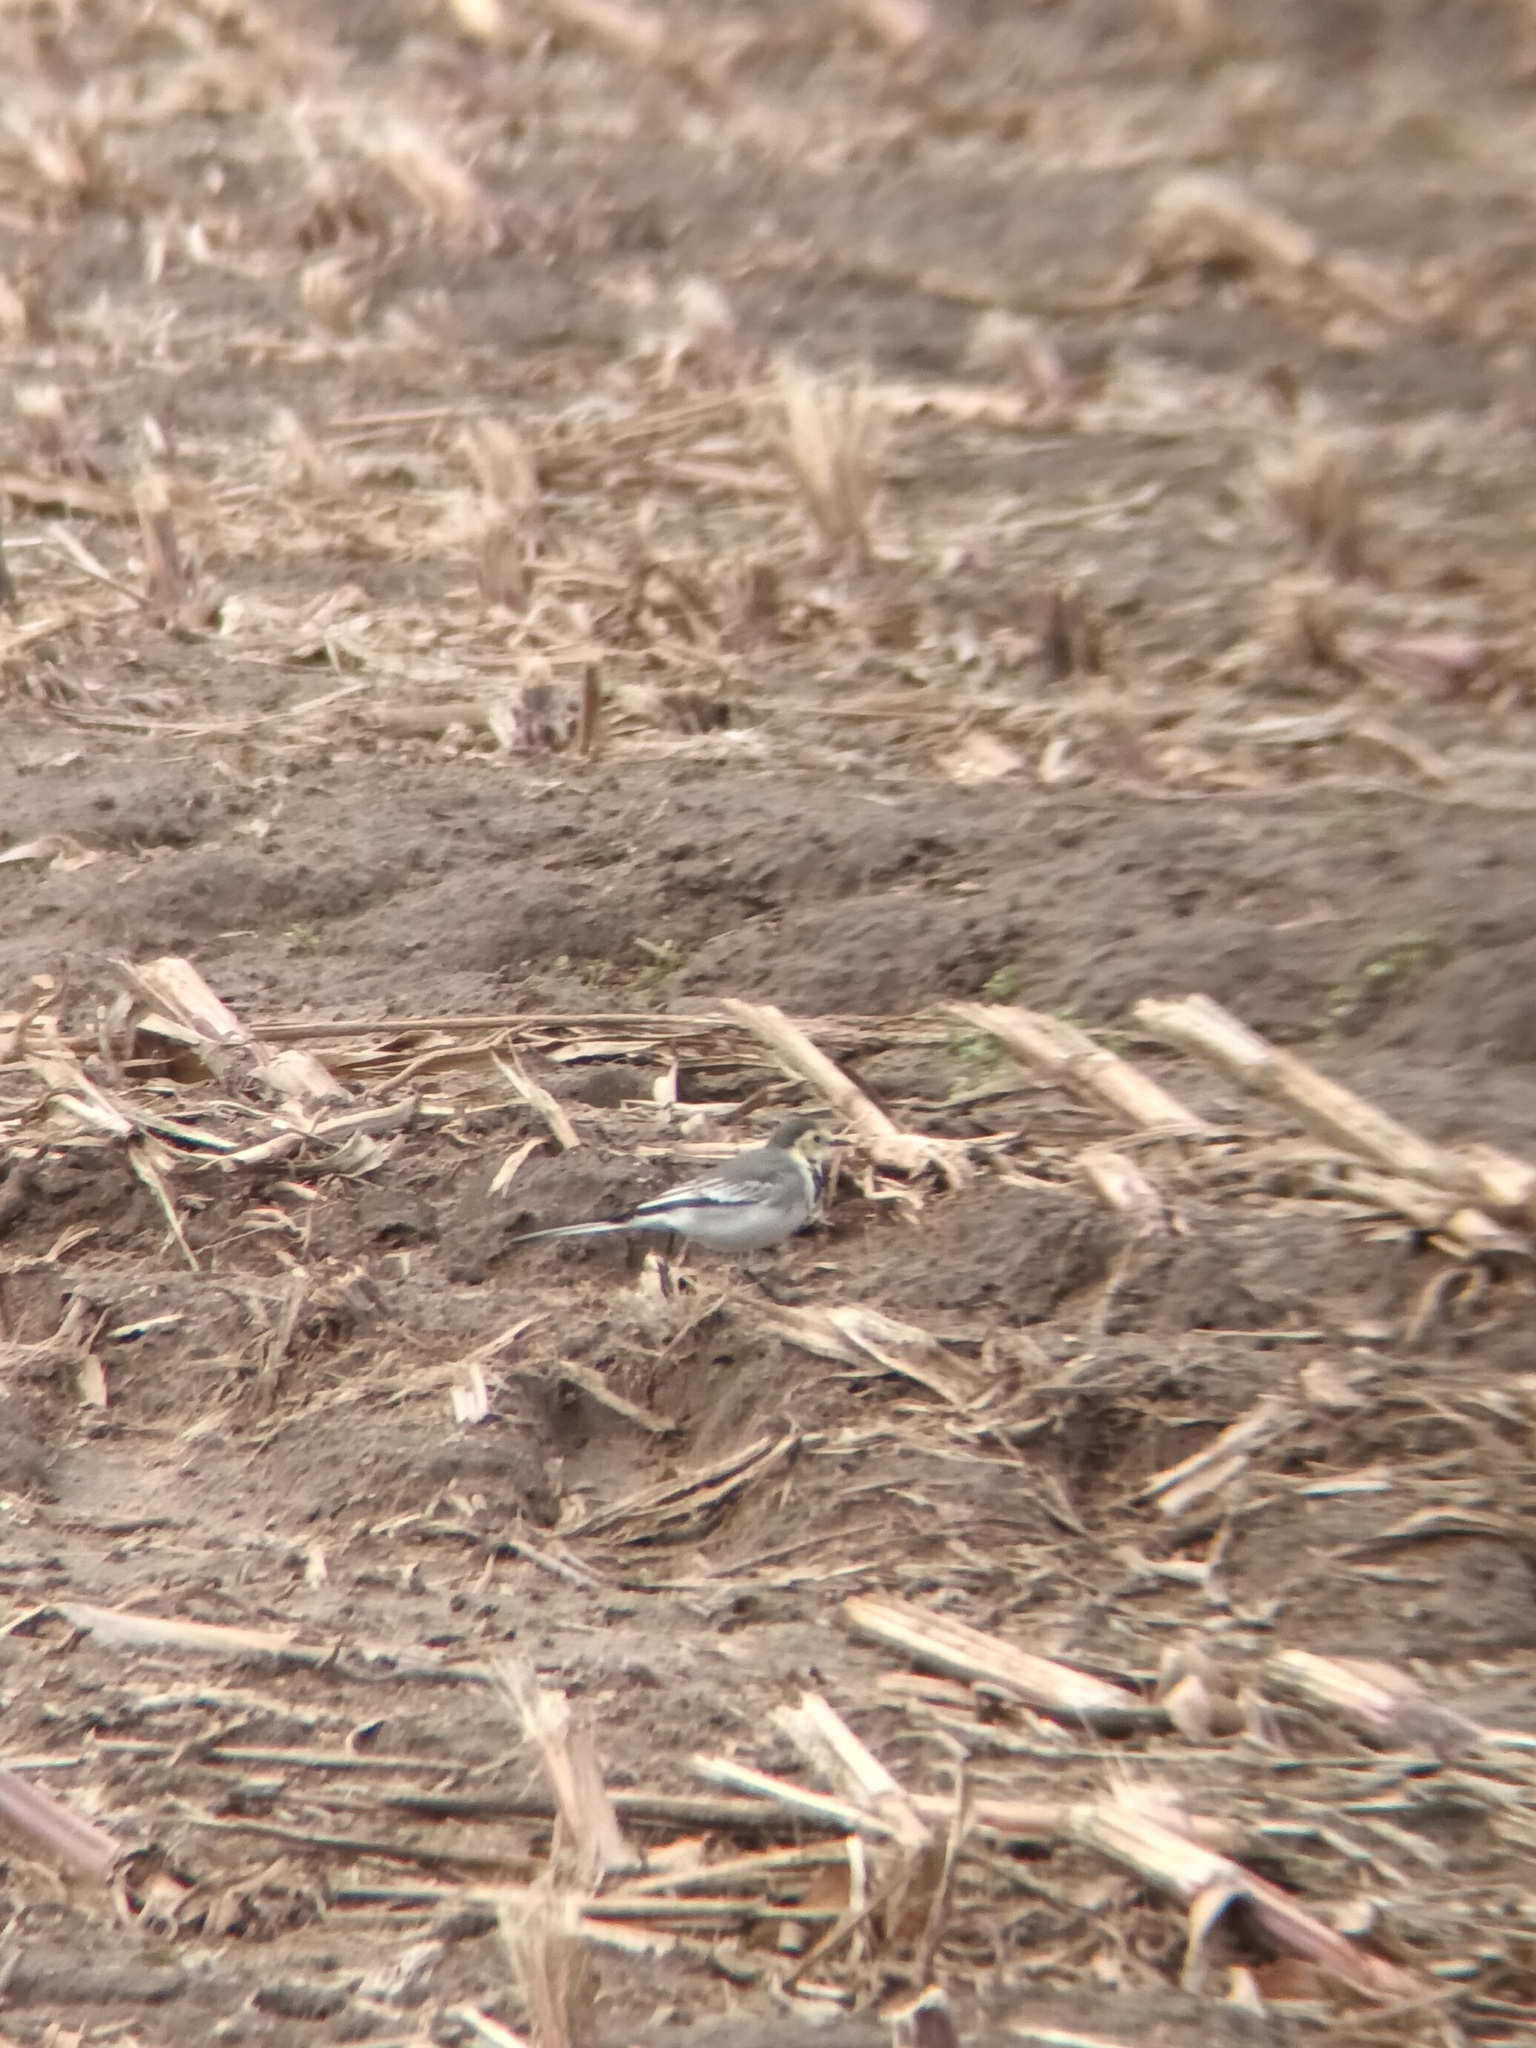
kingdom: Animalia
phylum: Chordata
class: Aves
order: Passeriformes
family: Motacillidae
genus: Motacilla
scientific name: Motacilla alba
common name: White wagtail
